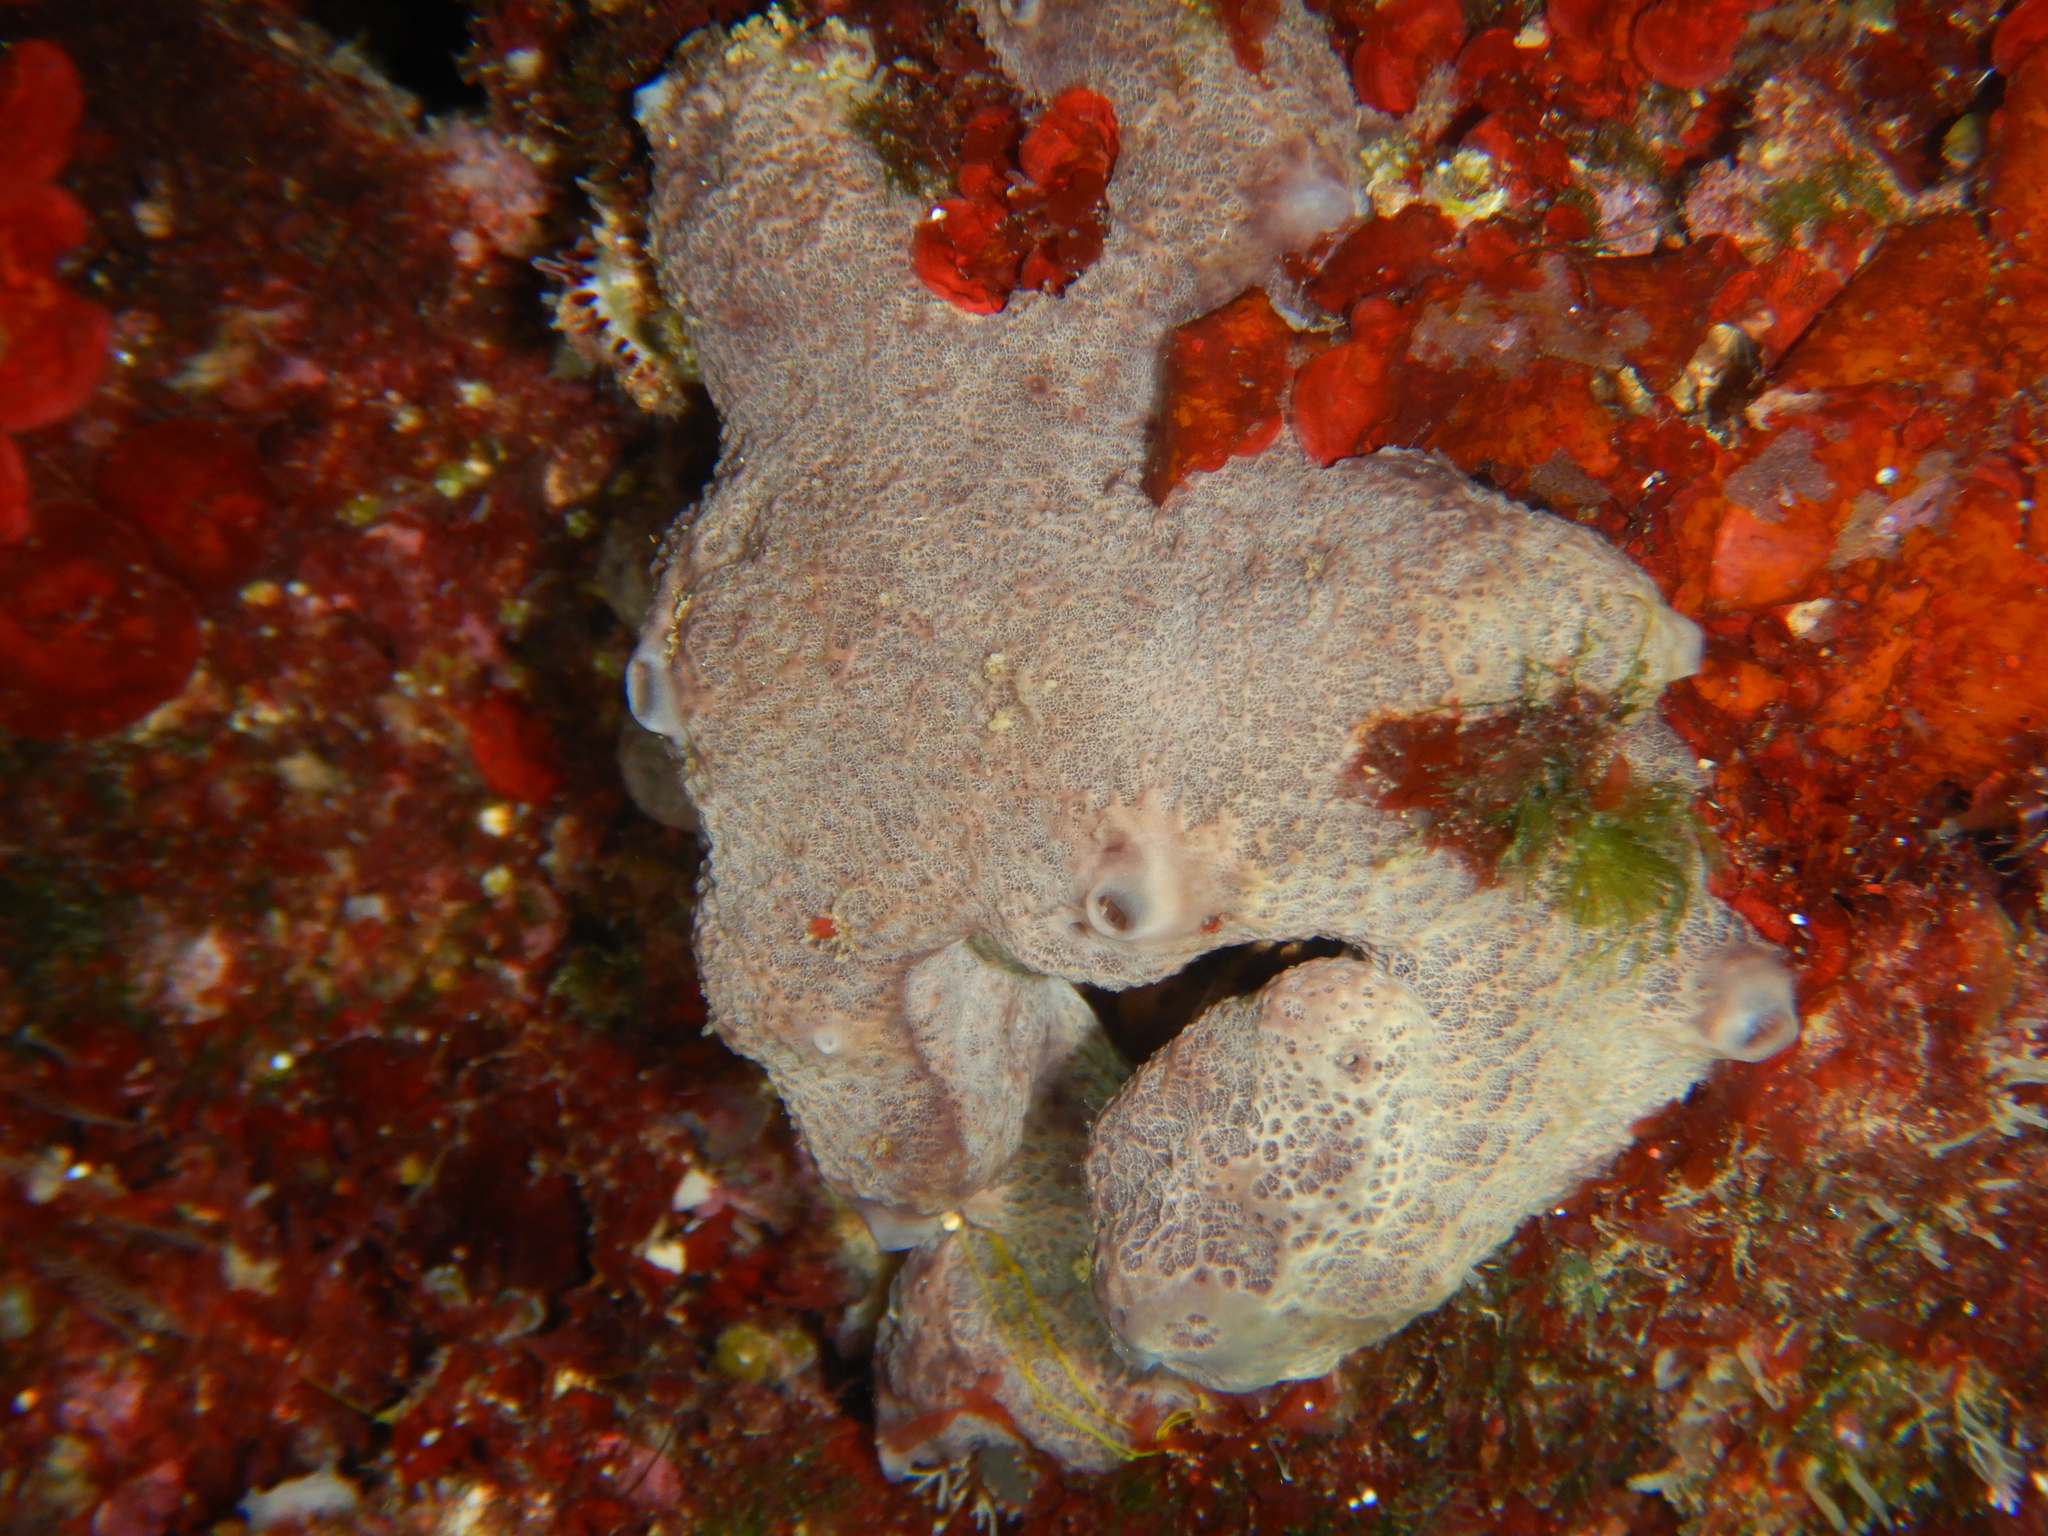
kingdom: Animalia
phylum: Porifera
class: Demospongiae
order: Dictyoceratida
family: Irciniidae
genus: Ircinia
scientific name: Ircinia variabilis
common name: Variable loggerhead sponge
